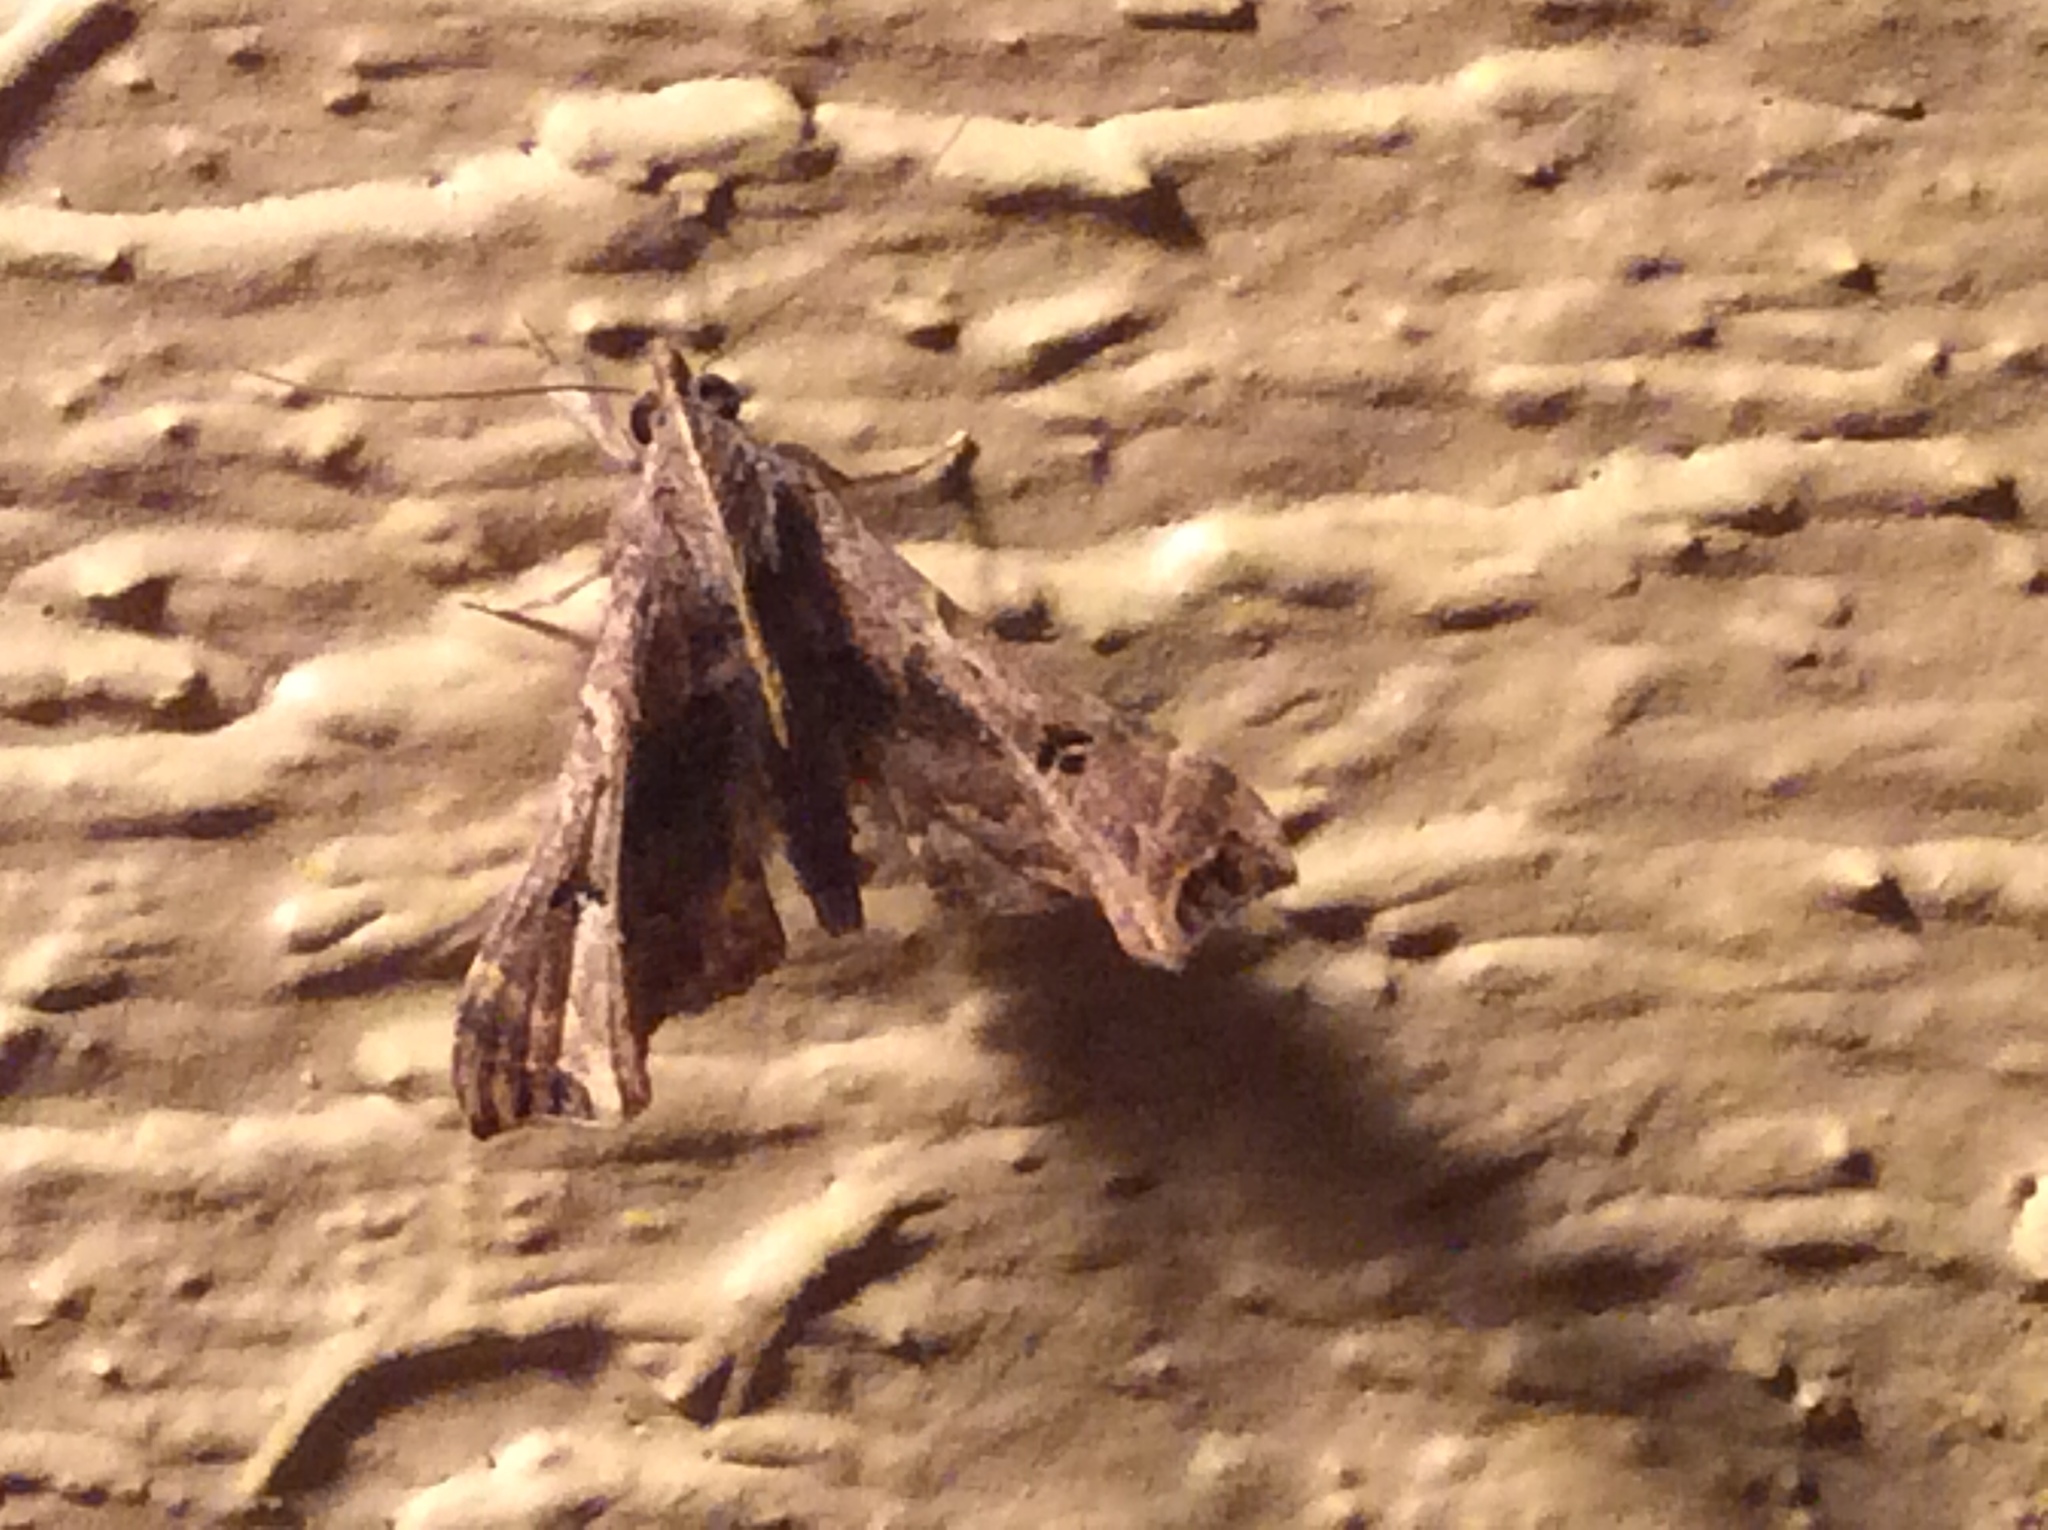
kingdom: Animalia
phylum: Arthropoda
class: Insecta
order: Lepidoptera
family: Erebidae
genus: Palthis
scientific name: Palthis asopialis
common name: Faint-spotted palthis moth
